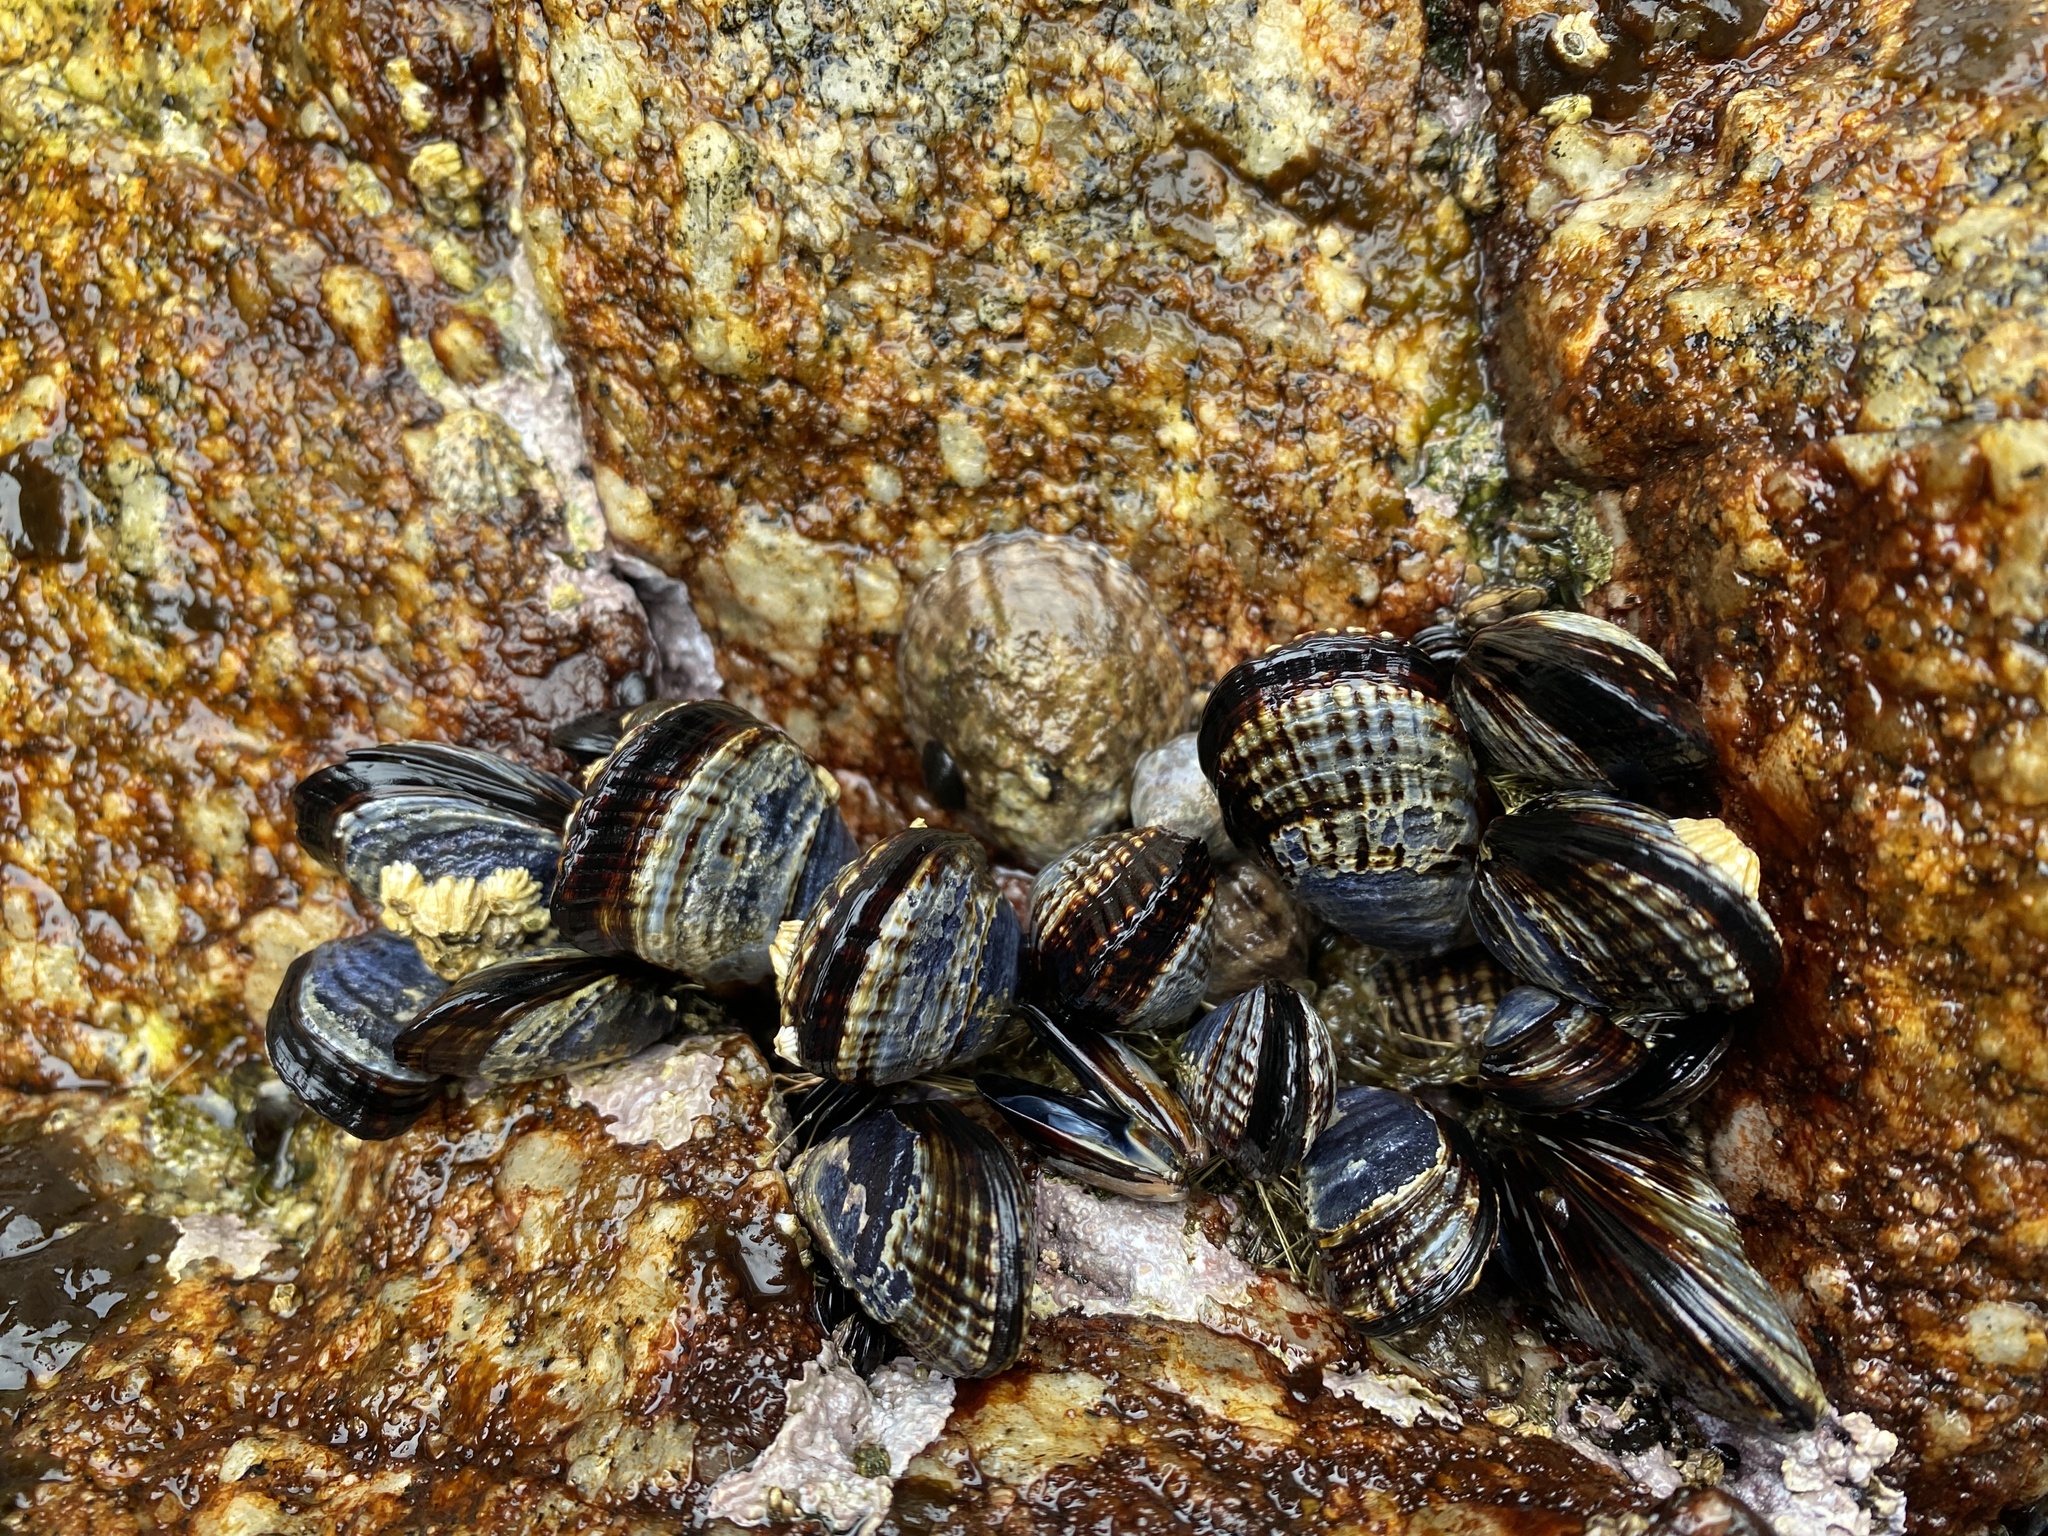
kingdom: Animalia
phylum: Mollusca
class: Bivalvia
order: Mytilida
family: Mytilidae
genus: Mytilus
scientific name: Mytilus californianus
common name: California mussel
